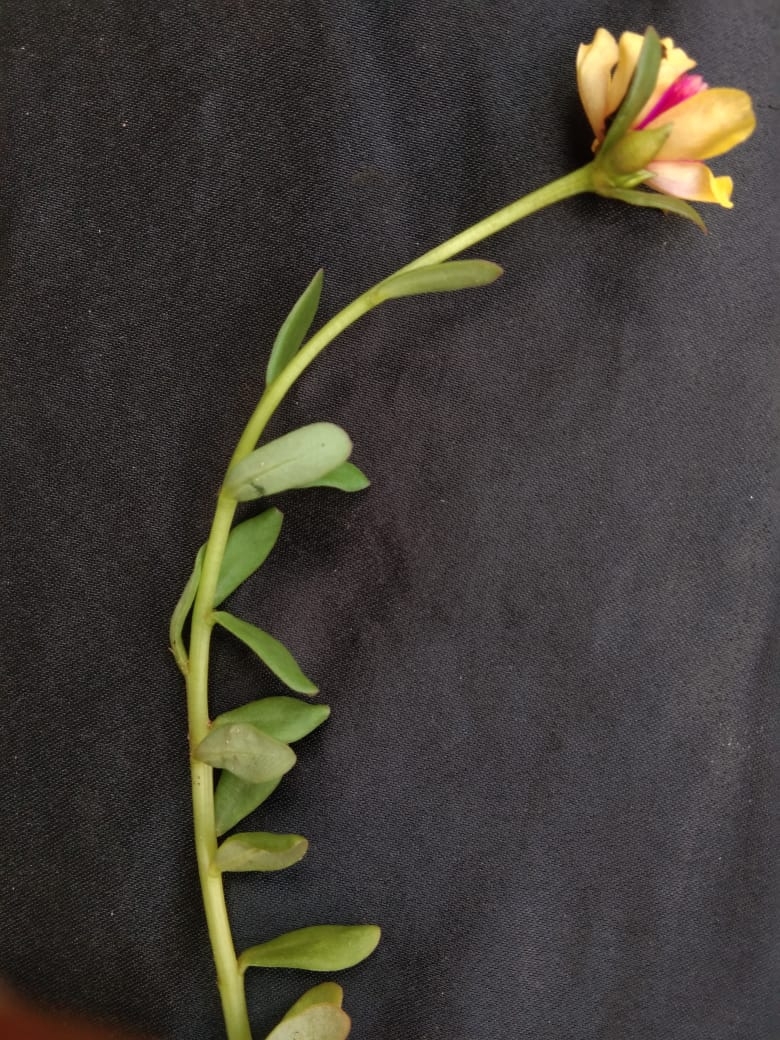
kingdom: Plantae
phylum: Tracheophyta
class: Magnoliopsida
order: Caryophyllales
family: Portulacaceae
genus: Portulaca
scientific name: Portulaca umbraticola
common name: Wingpod purslane
